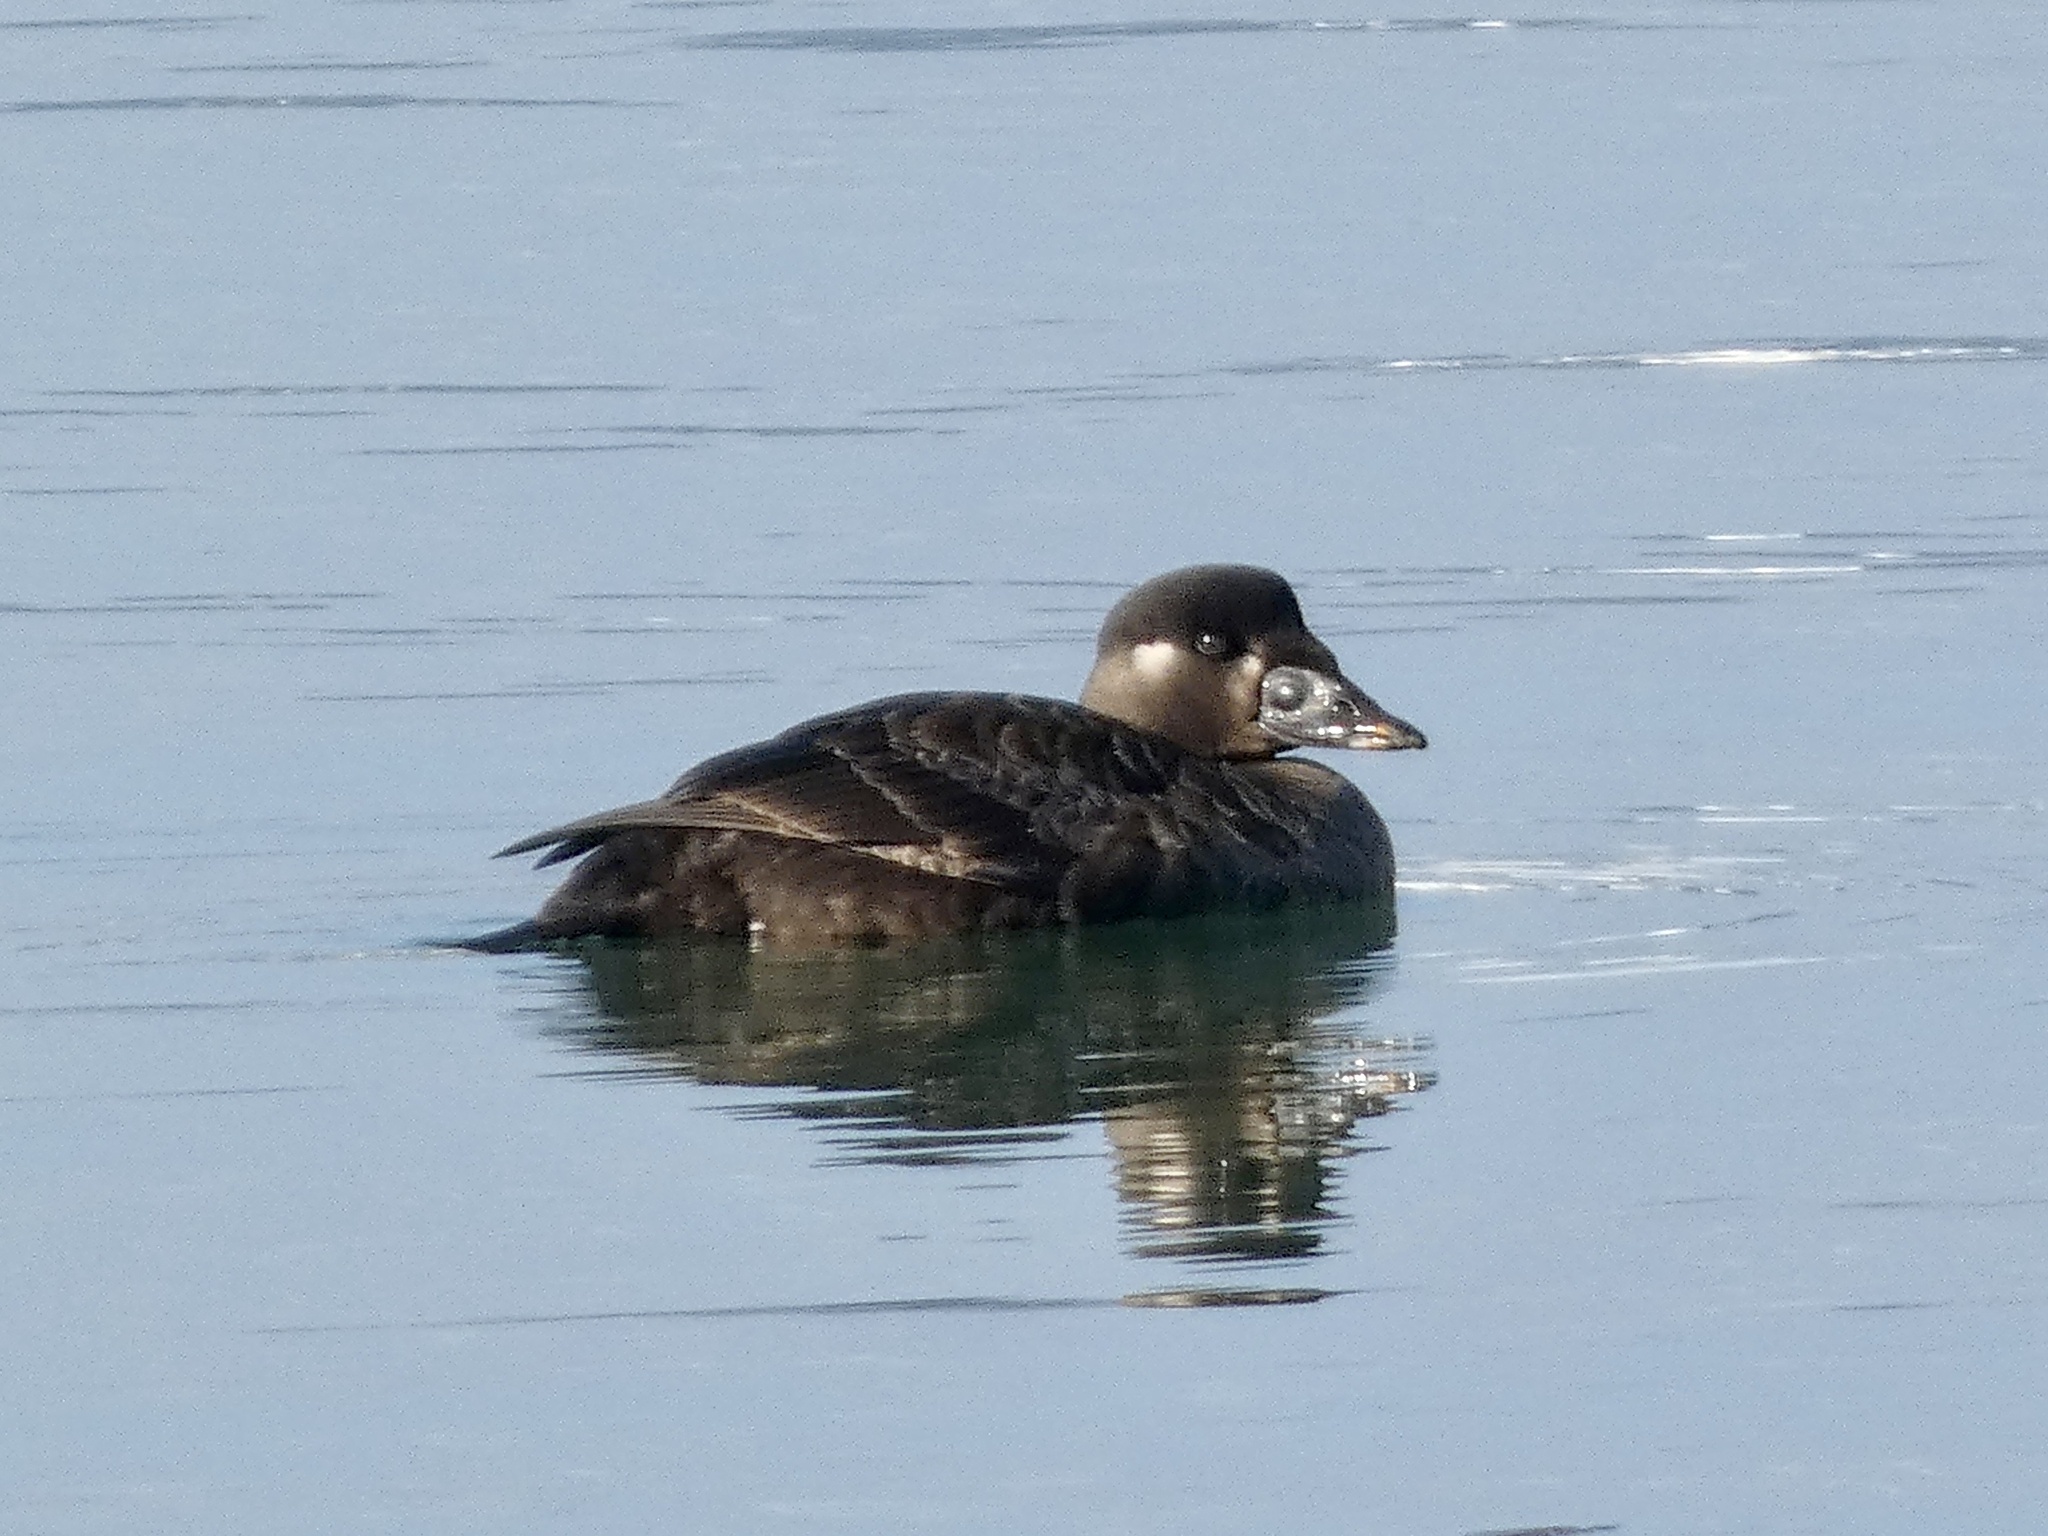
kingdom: Animalia
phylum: Chordata
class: Aves
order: Anseriformes
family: Anatidae
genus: Melanitta
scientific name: Melanitta perspicillata
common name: Surf scoter
